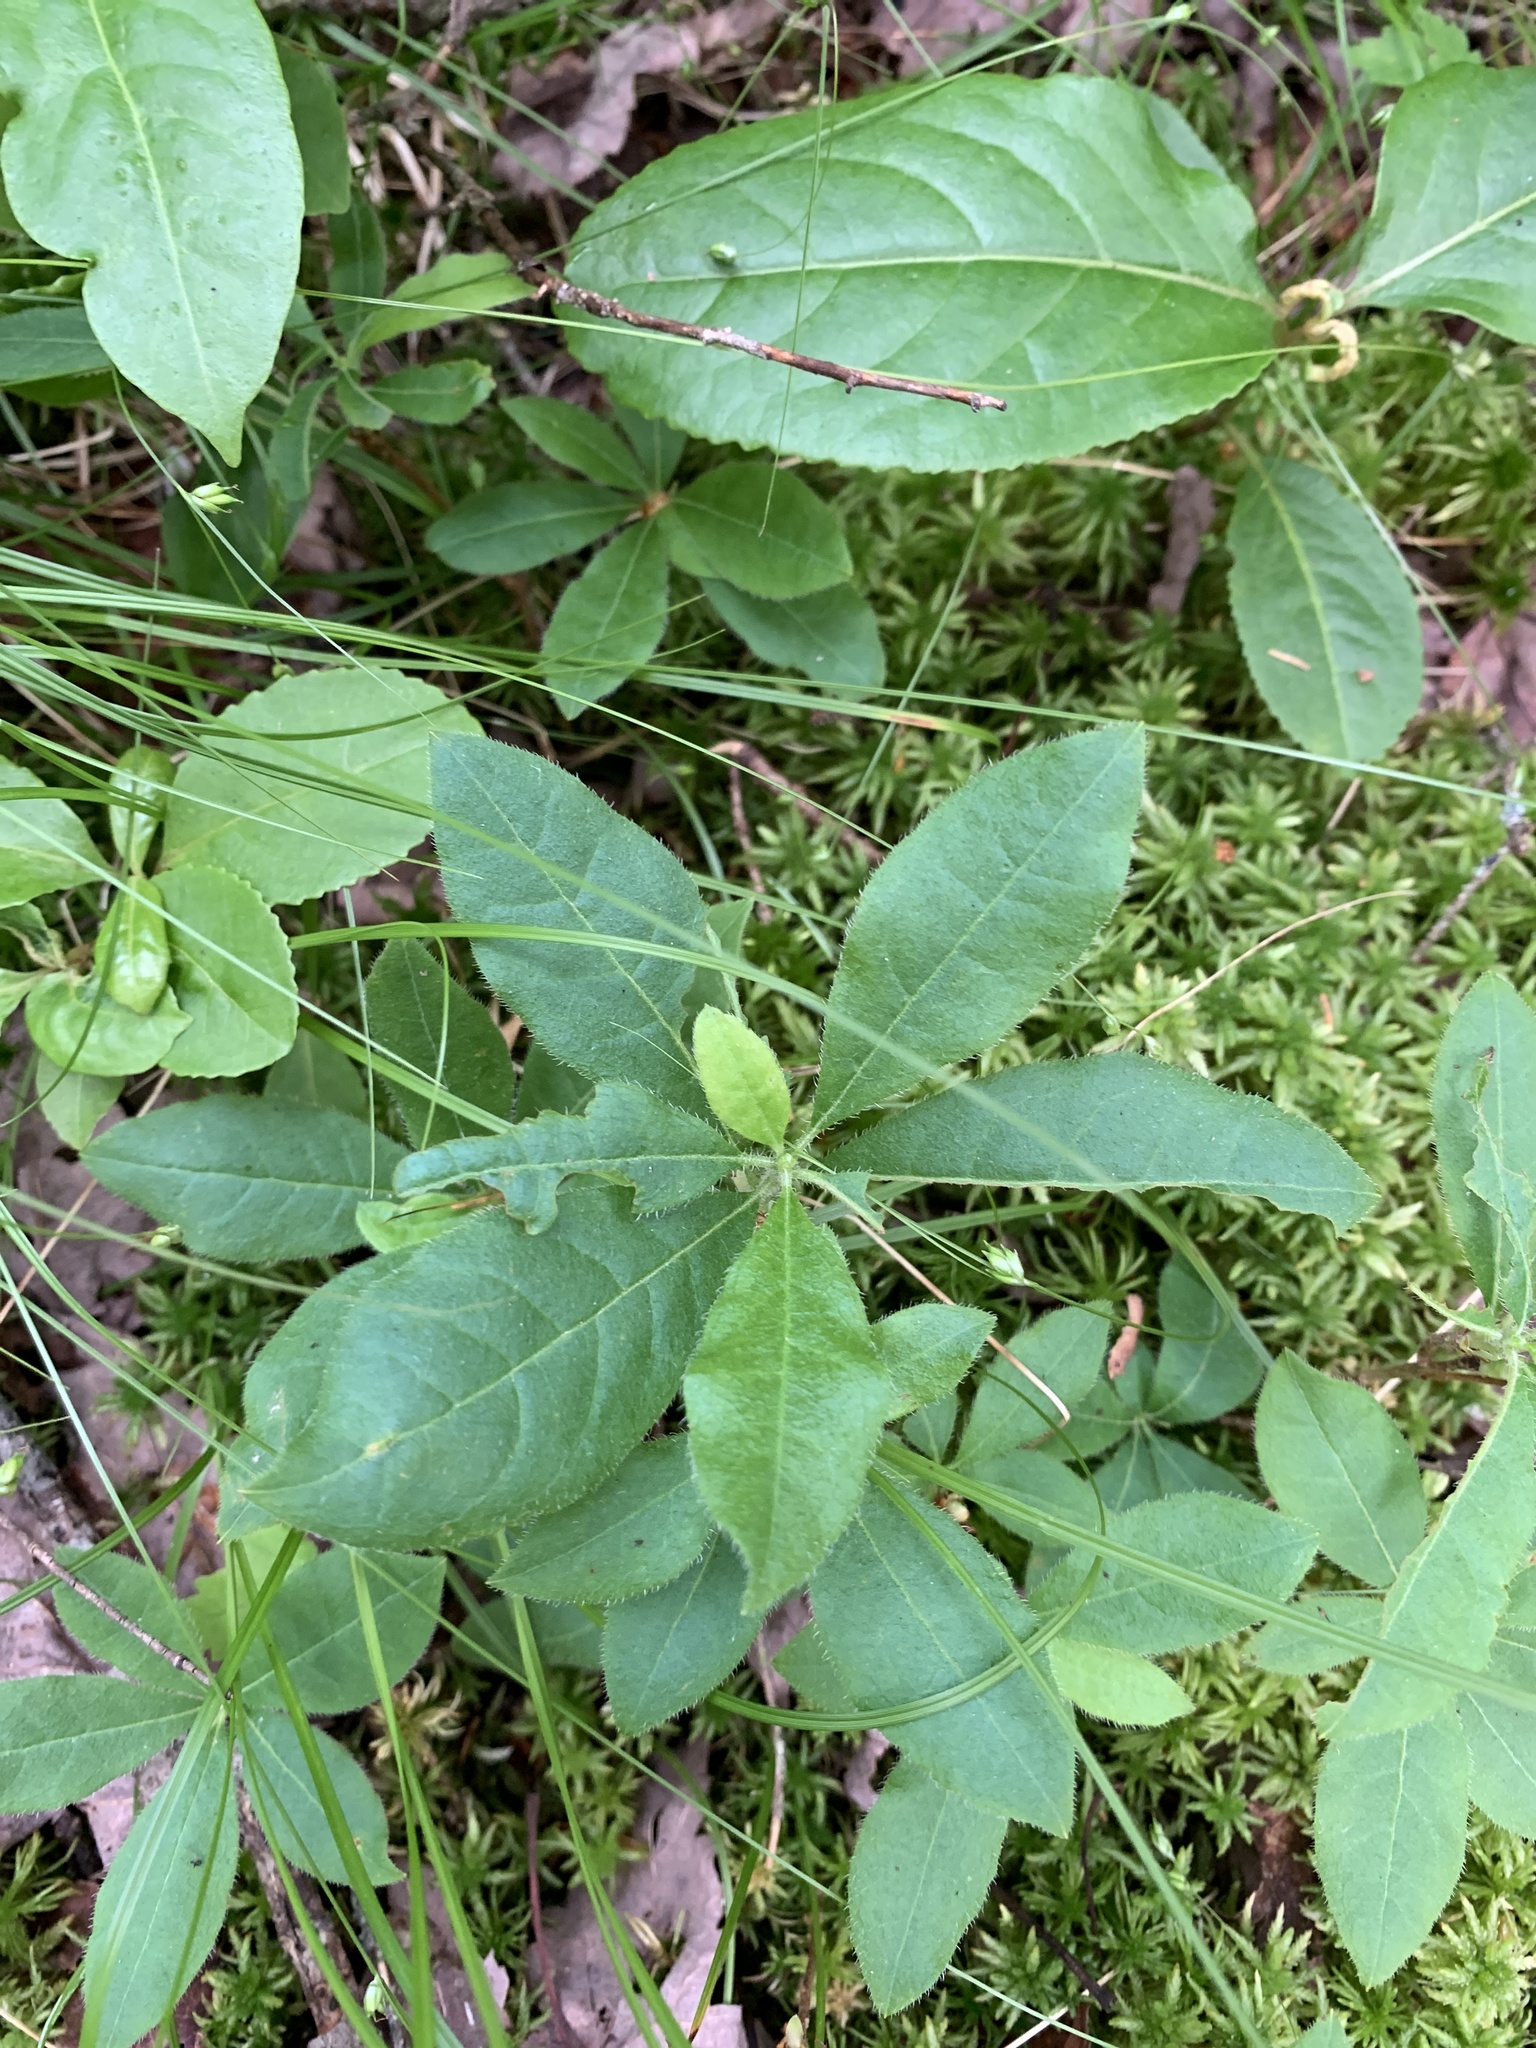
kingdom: Plantae
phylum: Tracheophyta
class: Magnoliopsida
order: Ericales
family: Ericaceae
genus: Rhododendron
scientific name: Rhododendron roseum
